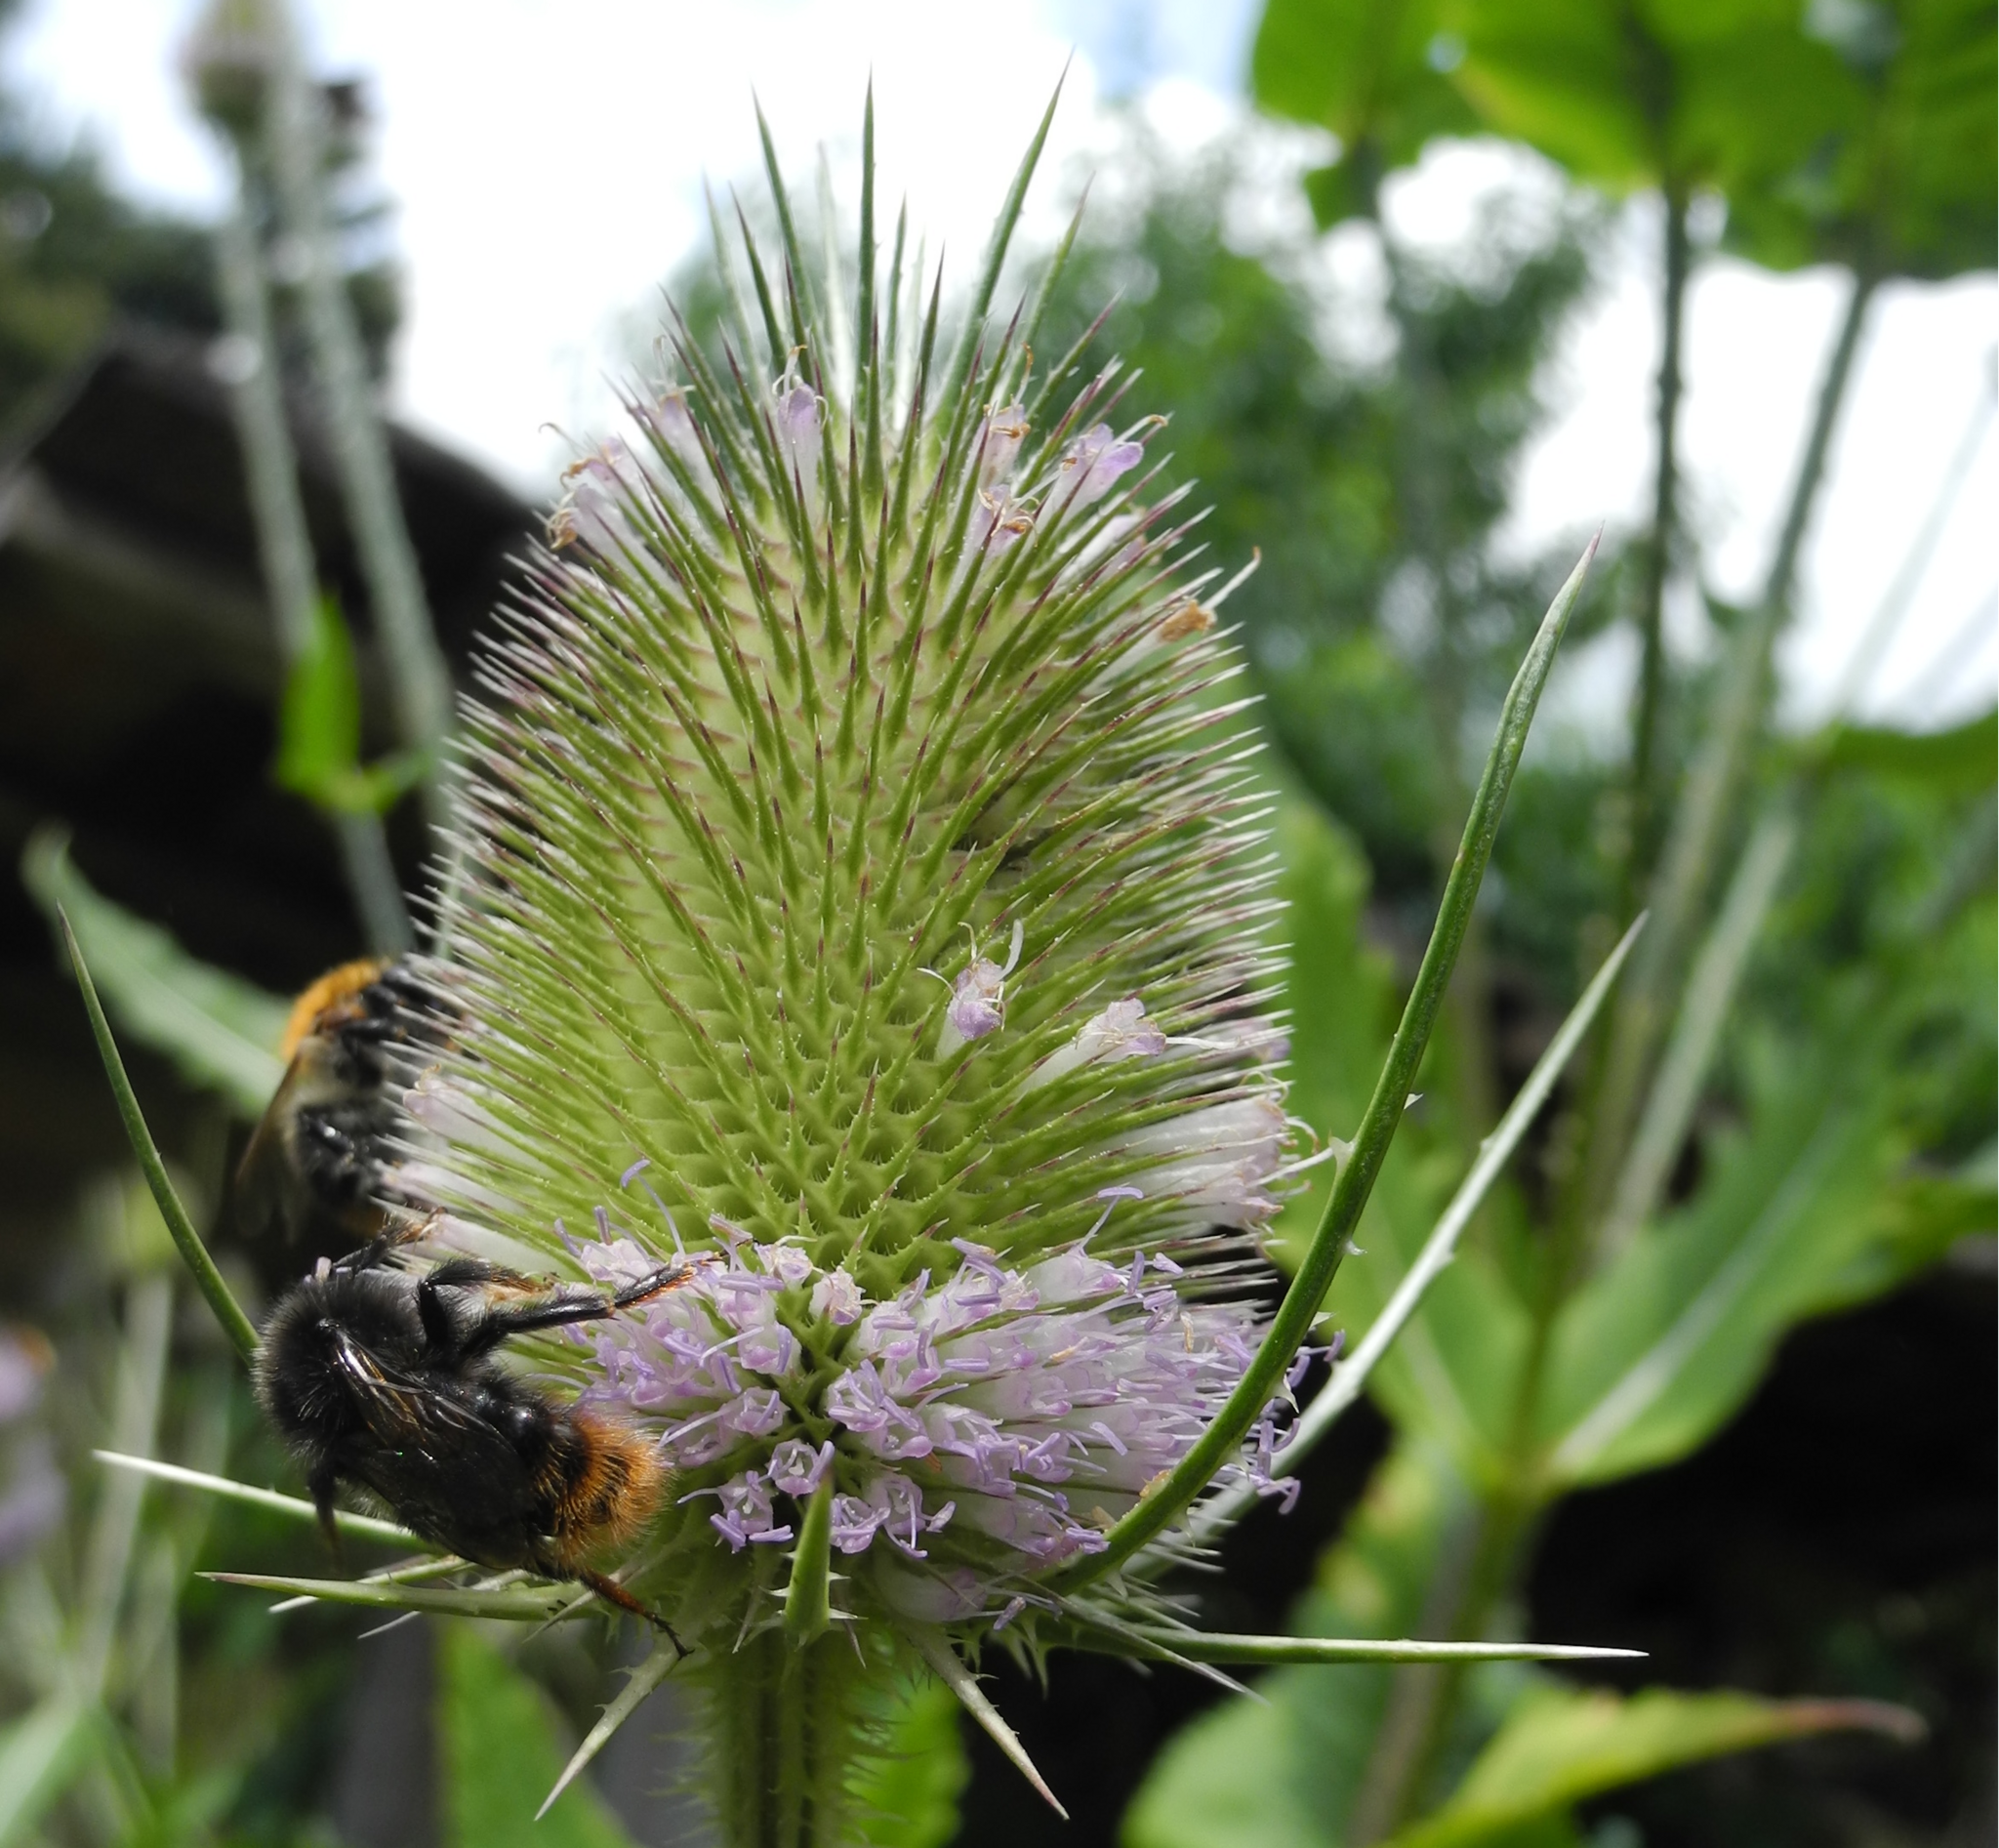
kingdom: Animalia
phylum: Arthropoda
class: Insecta
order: Hymenoptera
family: Apidae
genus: Bombus
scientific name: Bombus rupestris
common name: Hill cuckoo-bee
